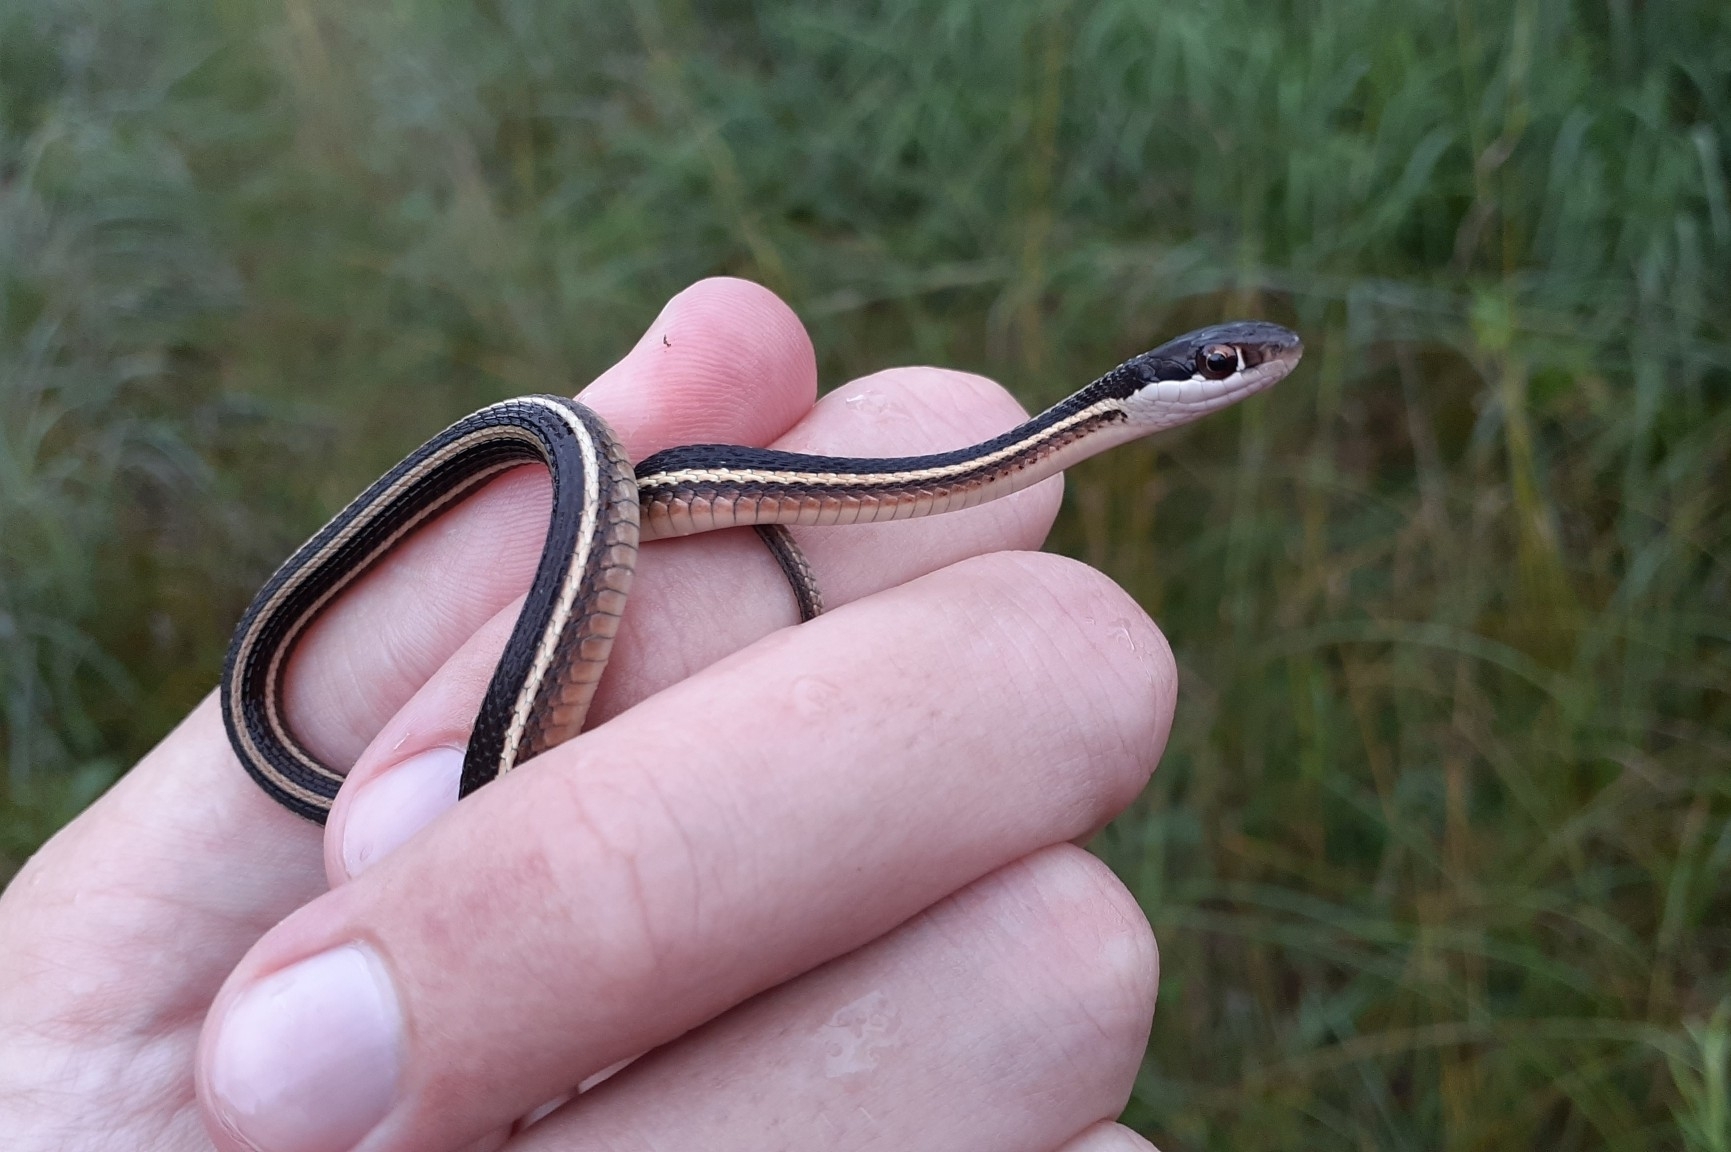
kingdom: Animalia
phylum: Chordata
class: Squamata
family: Colubridae
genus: Thamnophis
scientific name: Thamnophis saurita
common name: Eastern ribbonsnake
